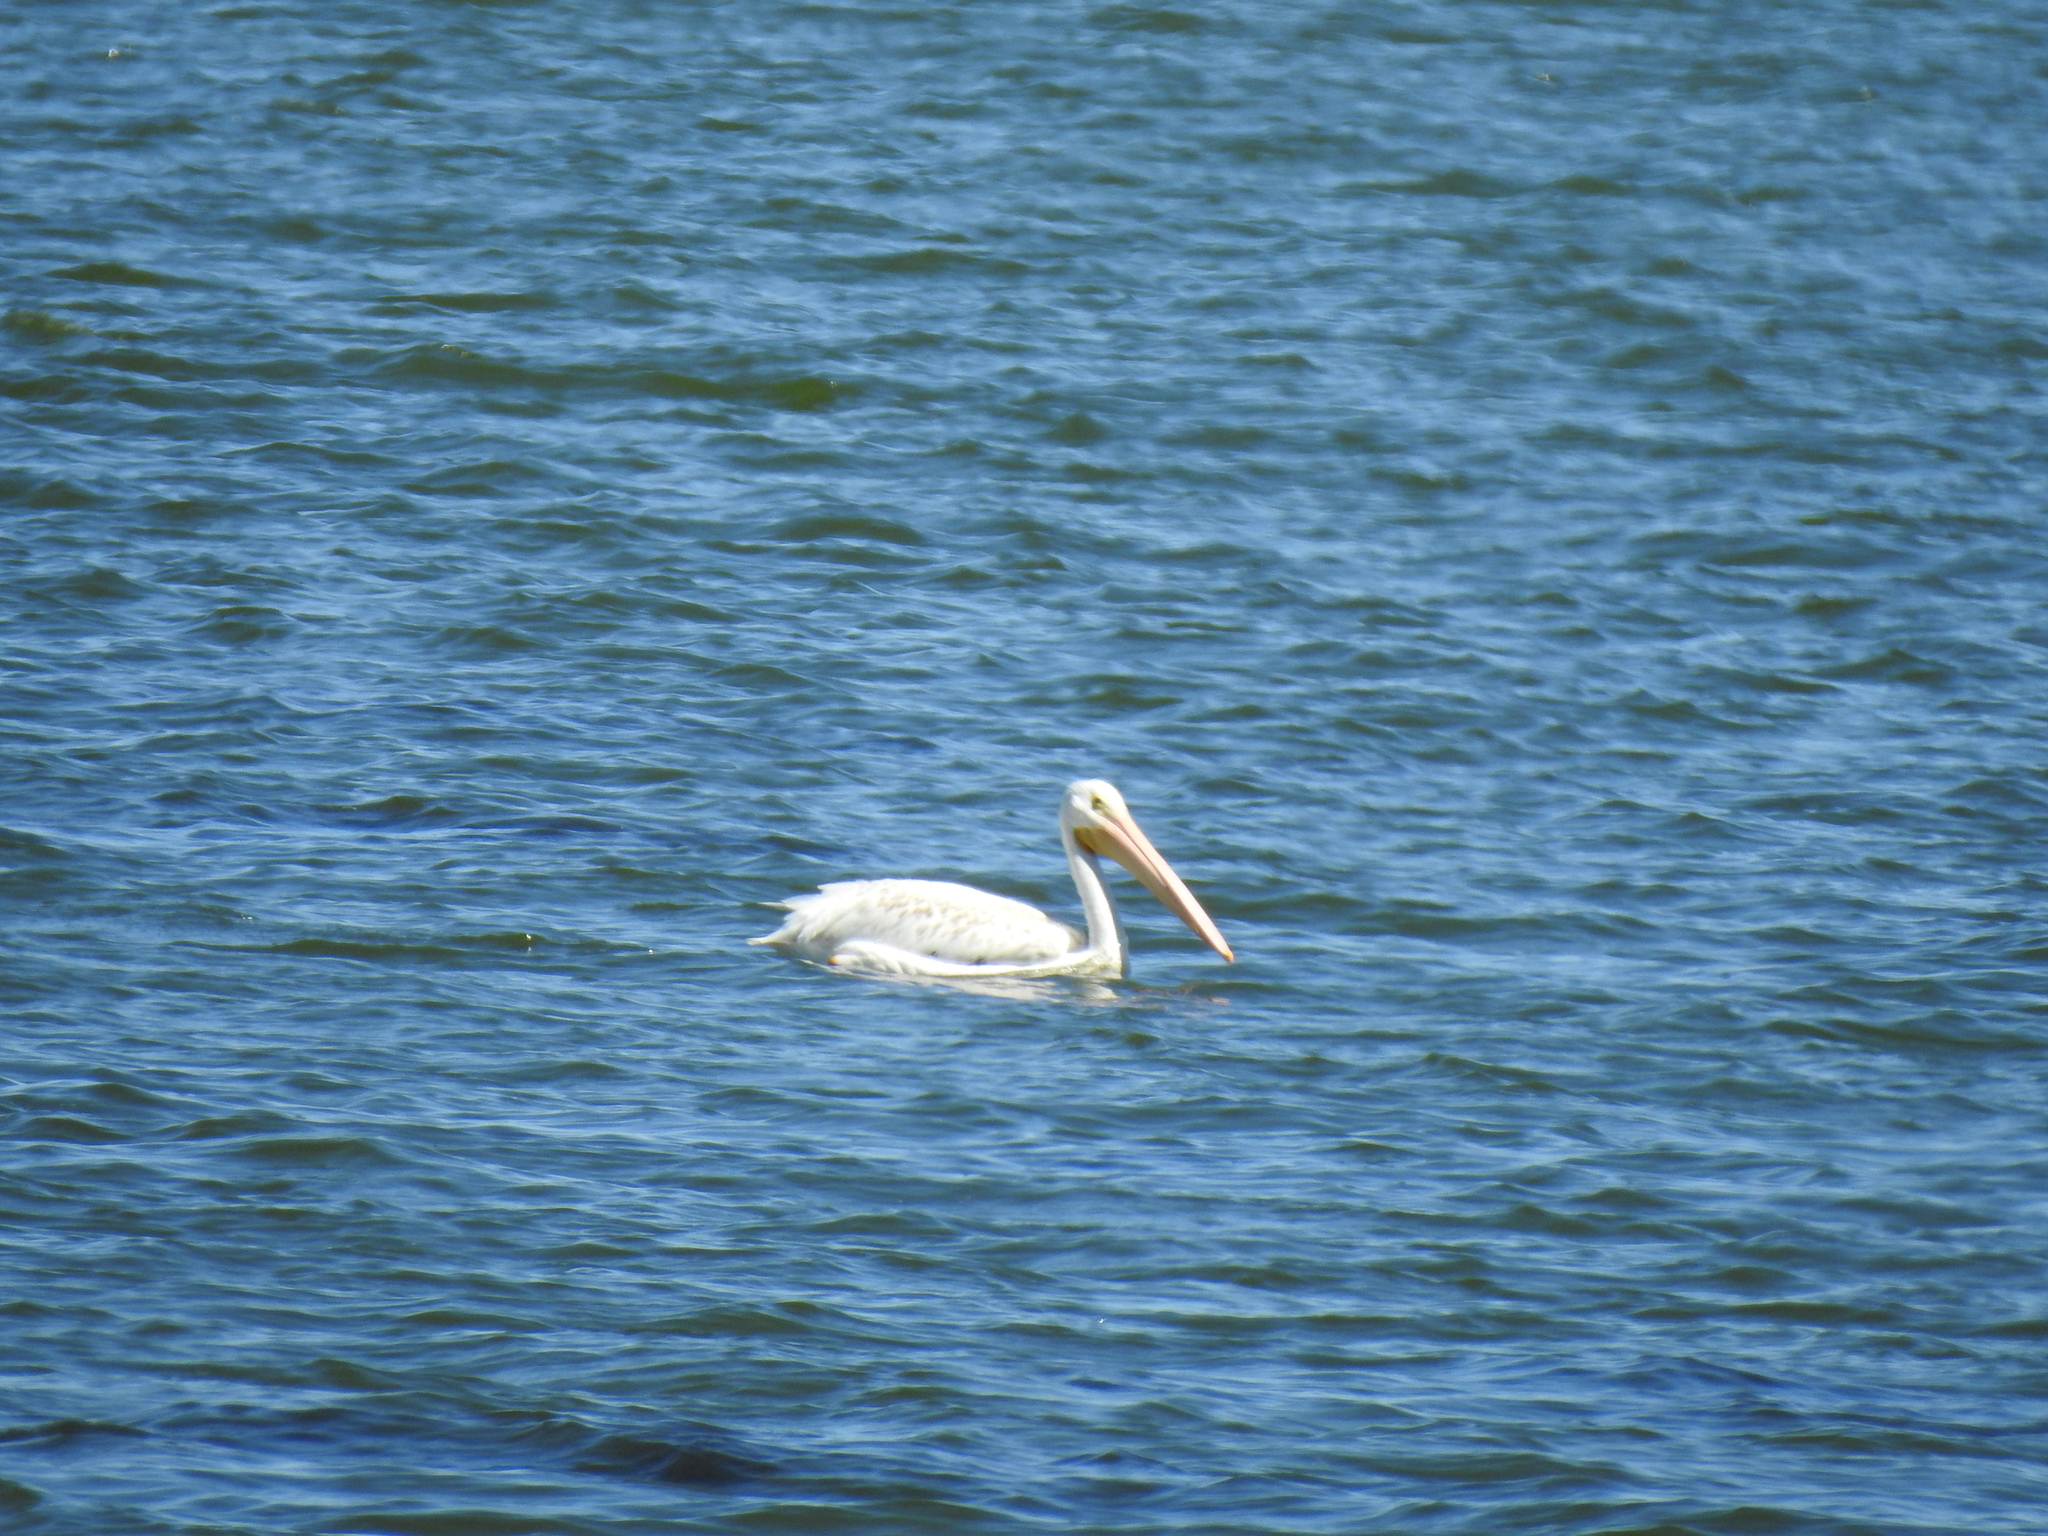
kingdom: Animalia
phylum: Chordata
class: Aves
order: Pelecaniformes
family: Pelecanidae
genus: Pelecanus
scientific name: Pelecanus erythrorhynchos
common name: American white pelican
